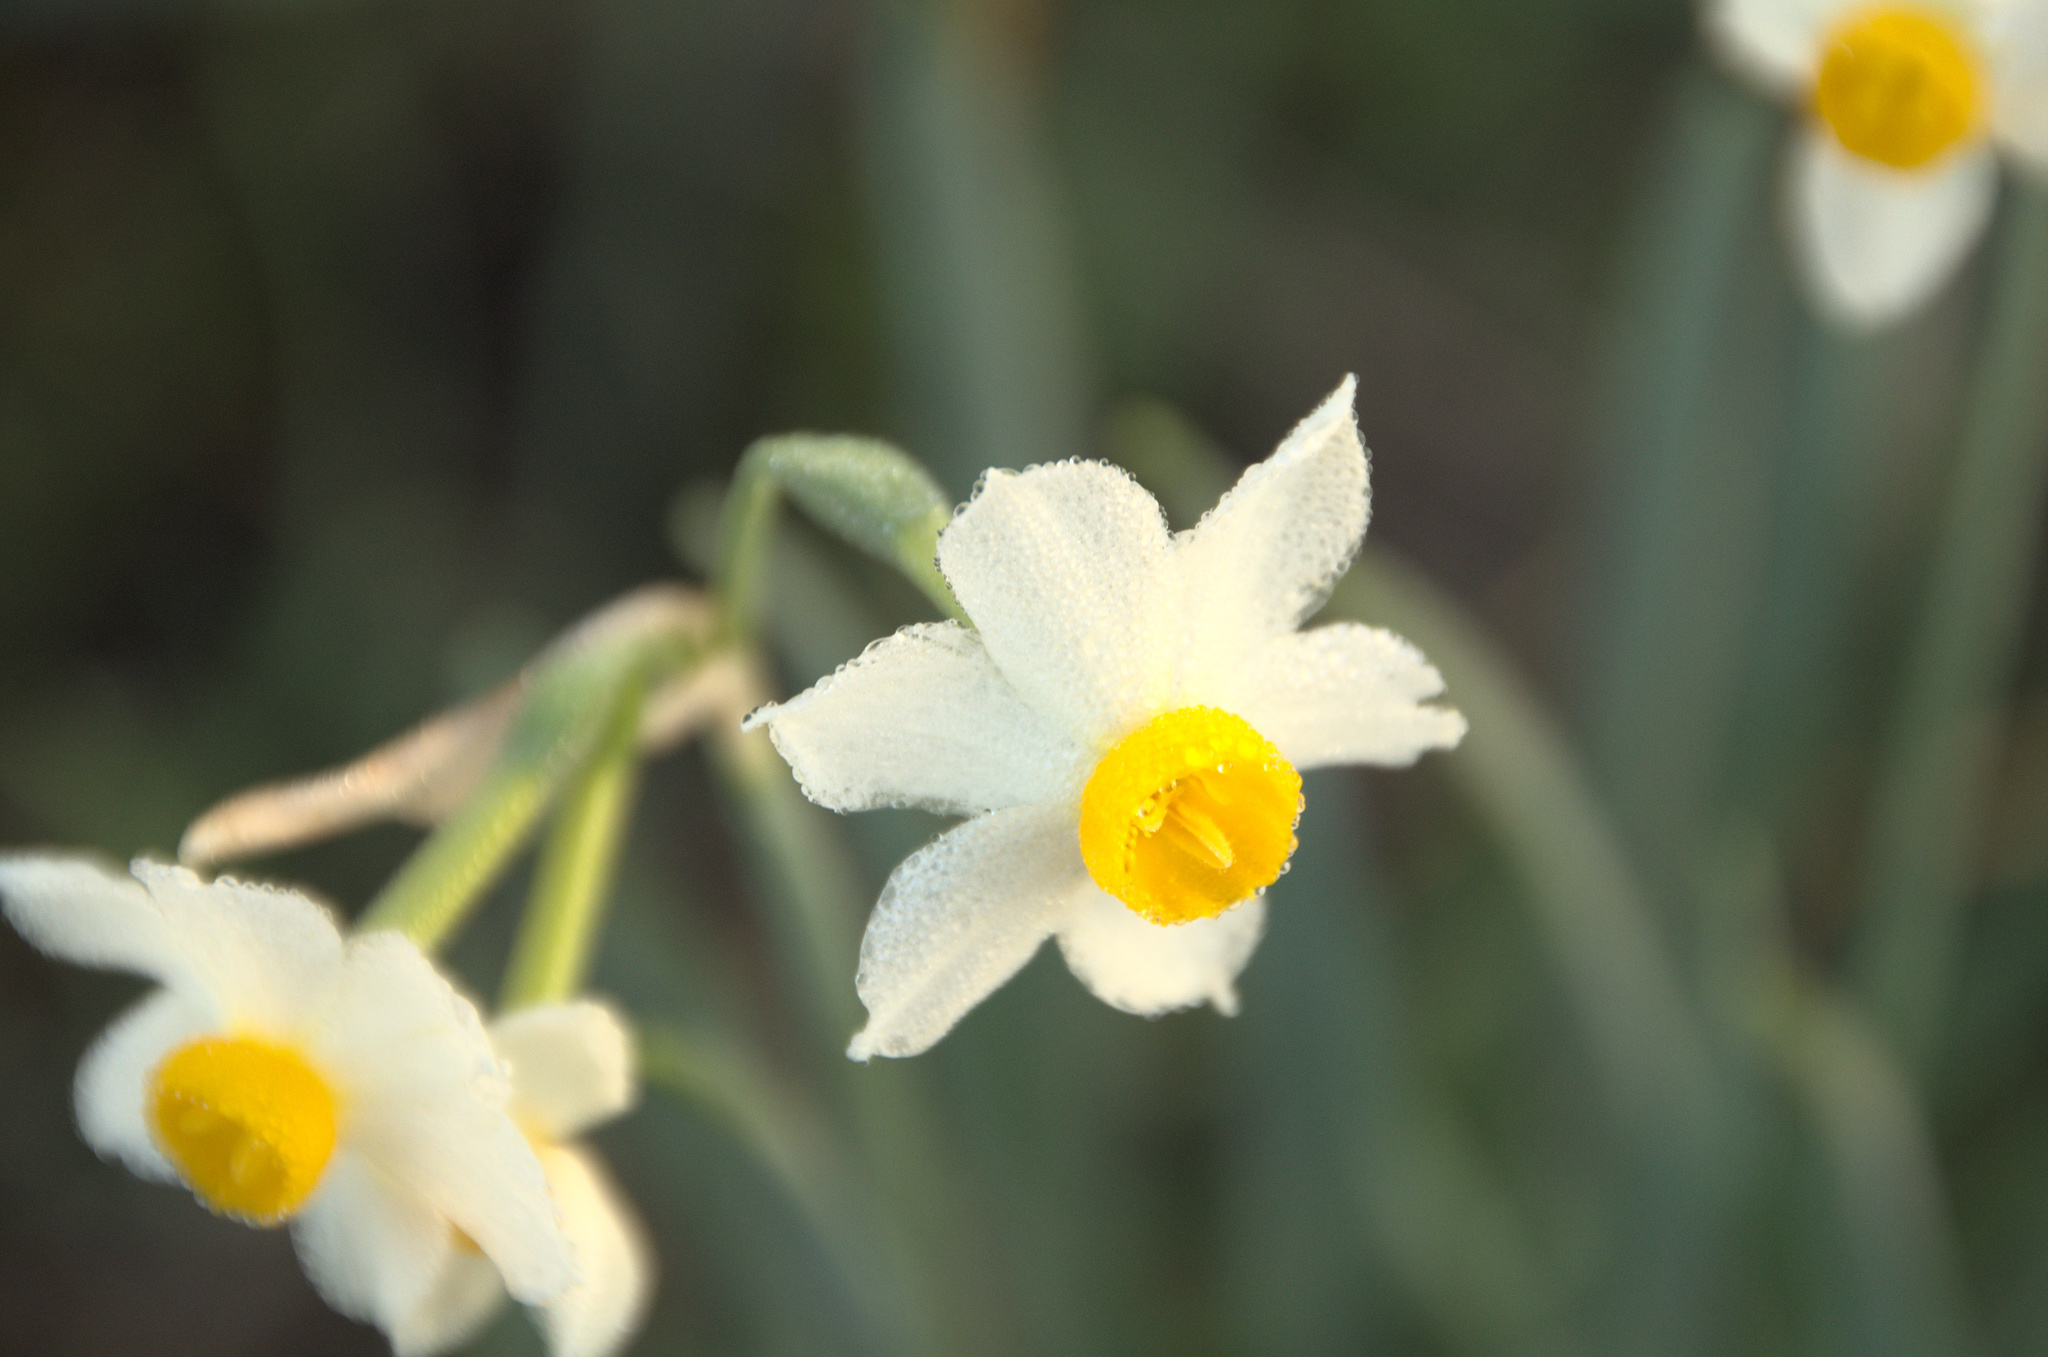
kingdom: Plantae
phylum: Tracheophyta
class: Liliopsida
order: Asparagales
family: Amaryllidaceae
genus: Narcissus
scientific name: Narcissus tazetta
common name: Bunch-flowered daffodil
